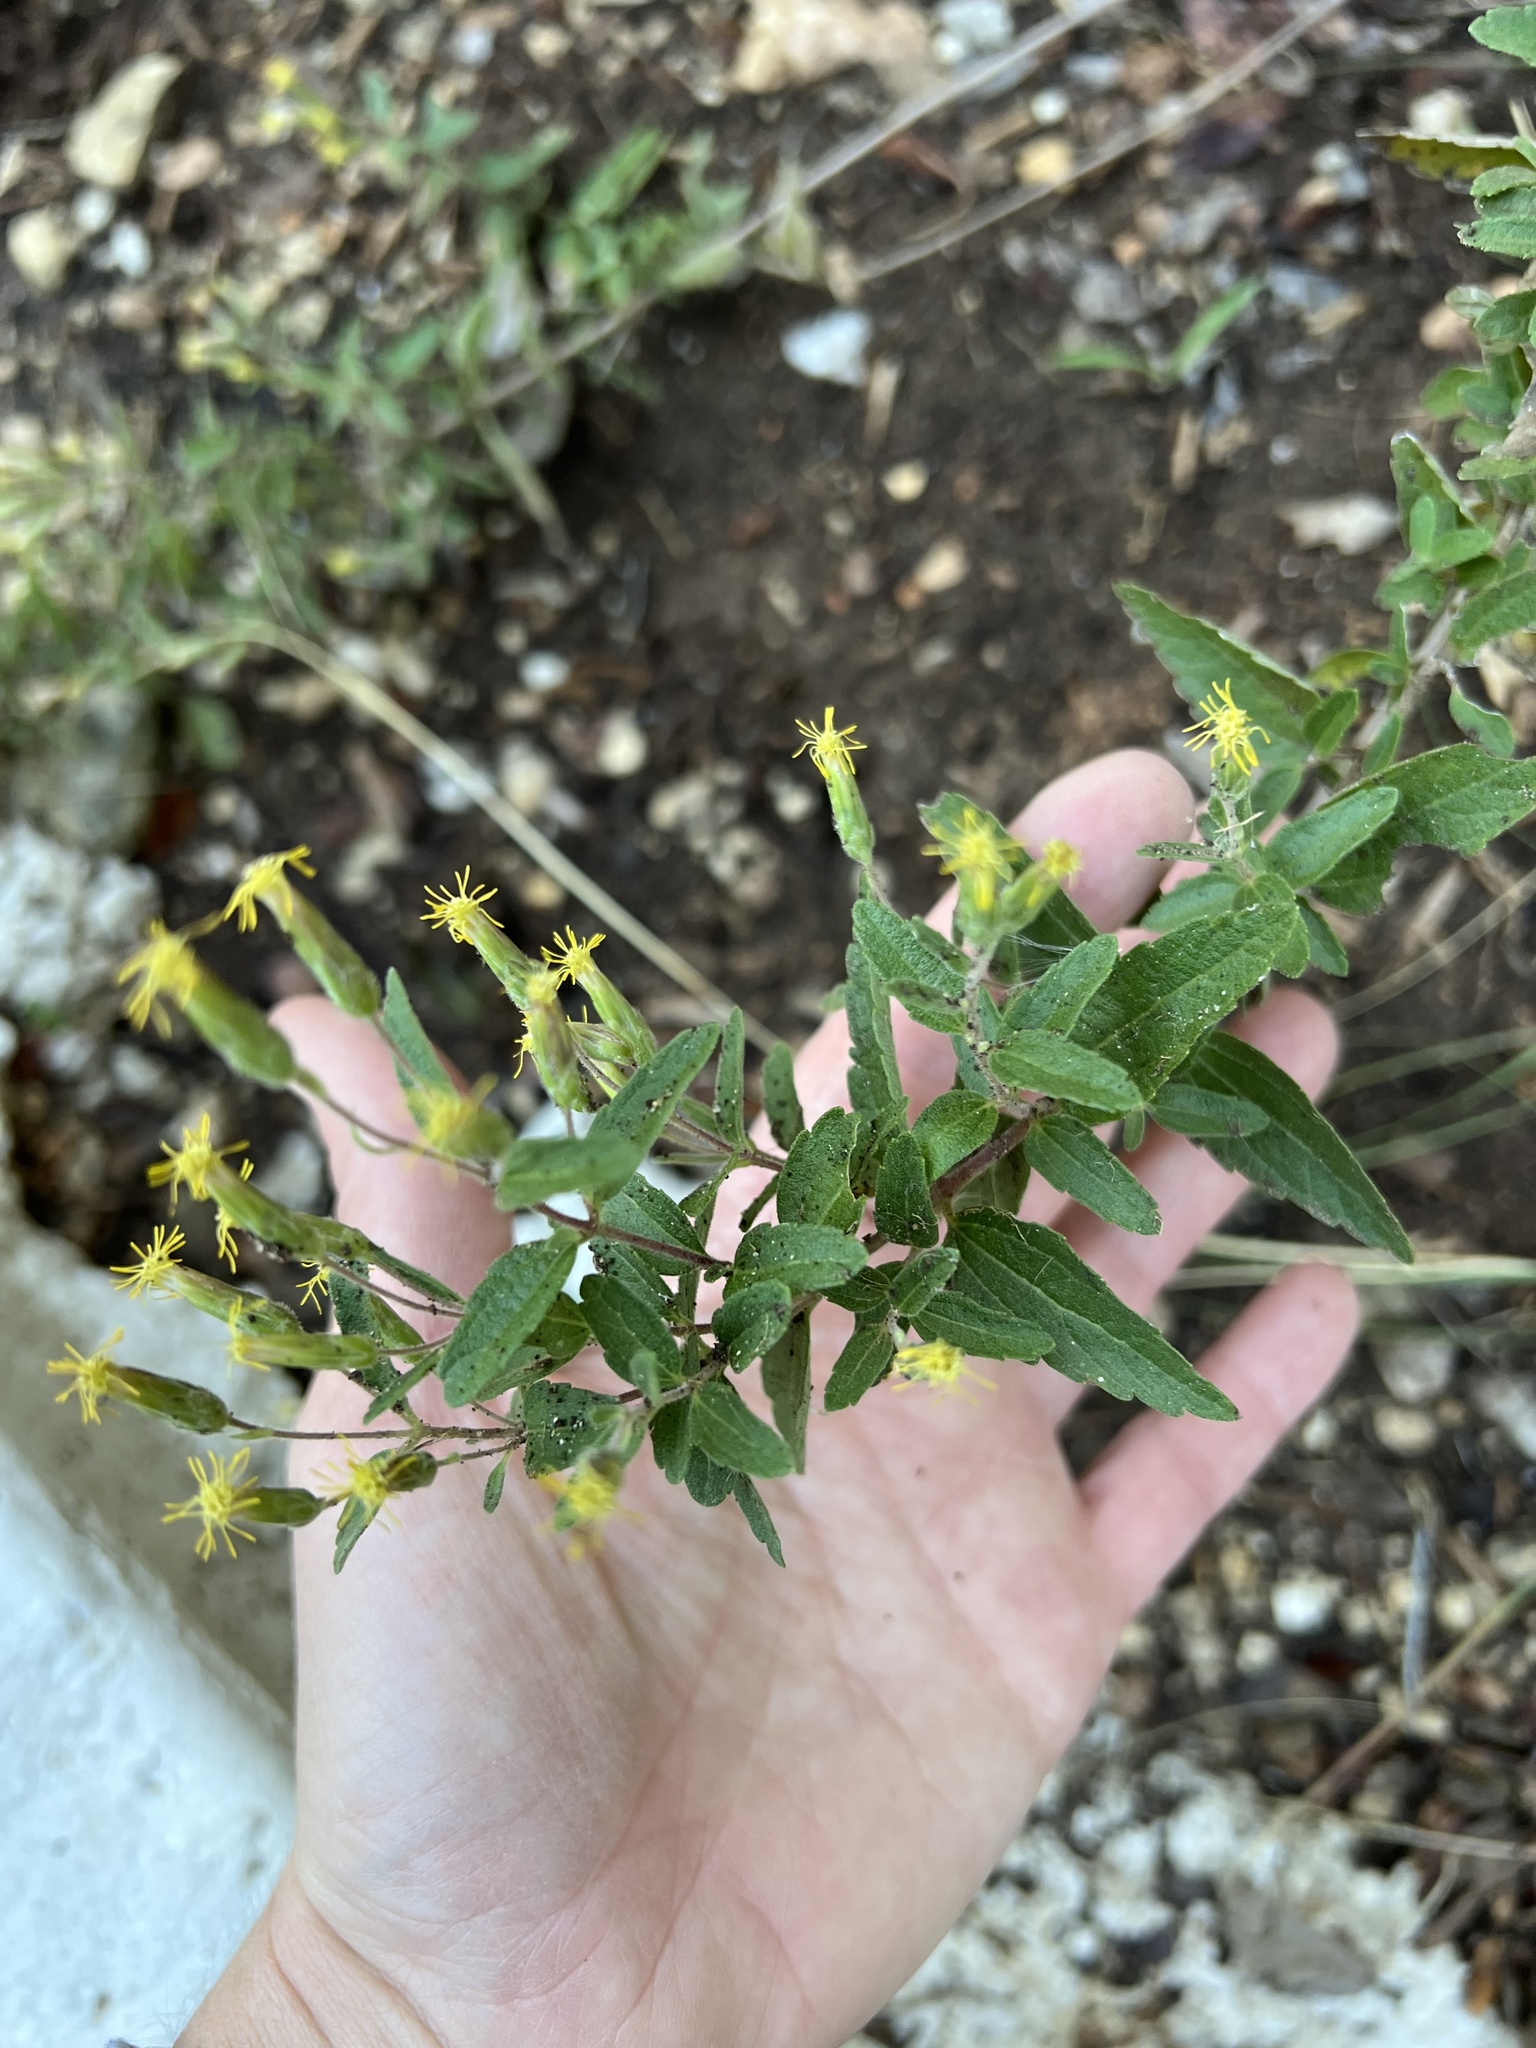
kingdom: Plantae
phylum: Tracheophyta
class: Magnoliopsida
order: Asterales
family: Asteraceae
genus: Brickellia
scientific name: Brickellia cylindracea
